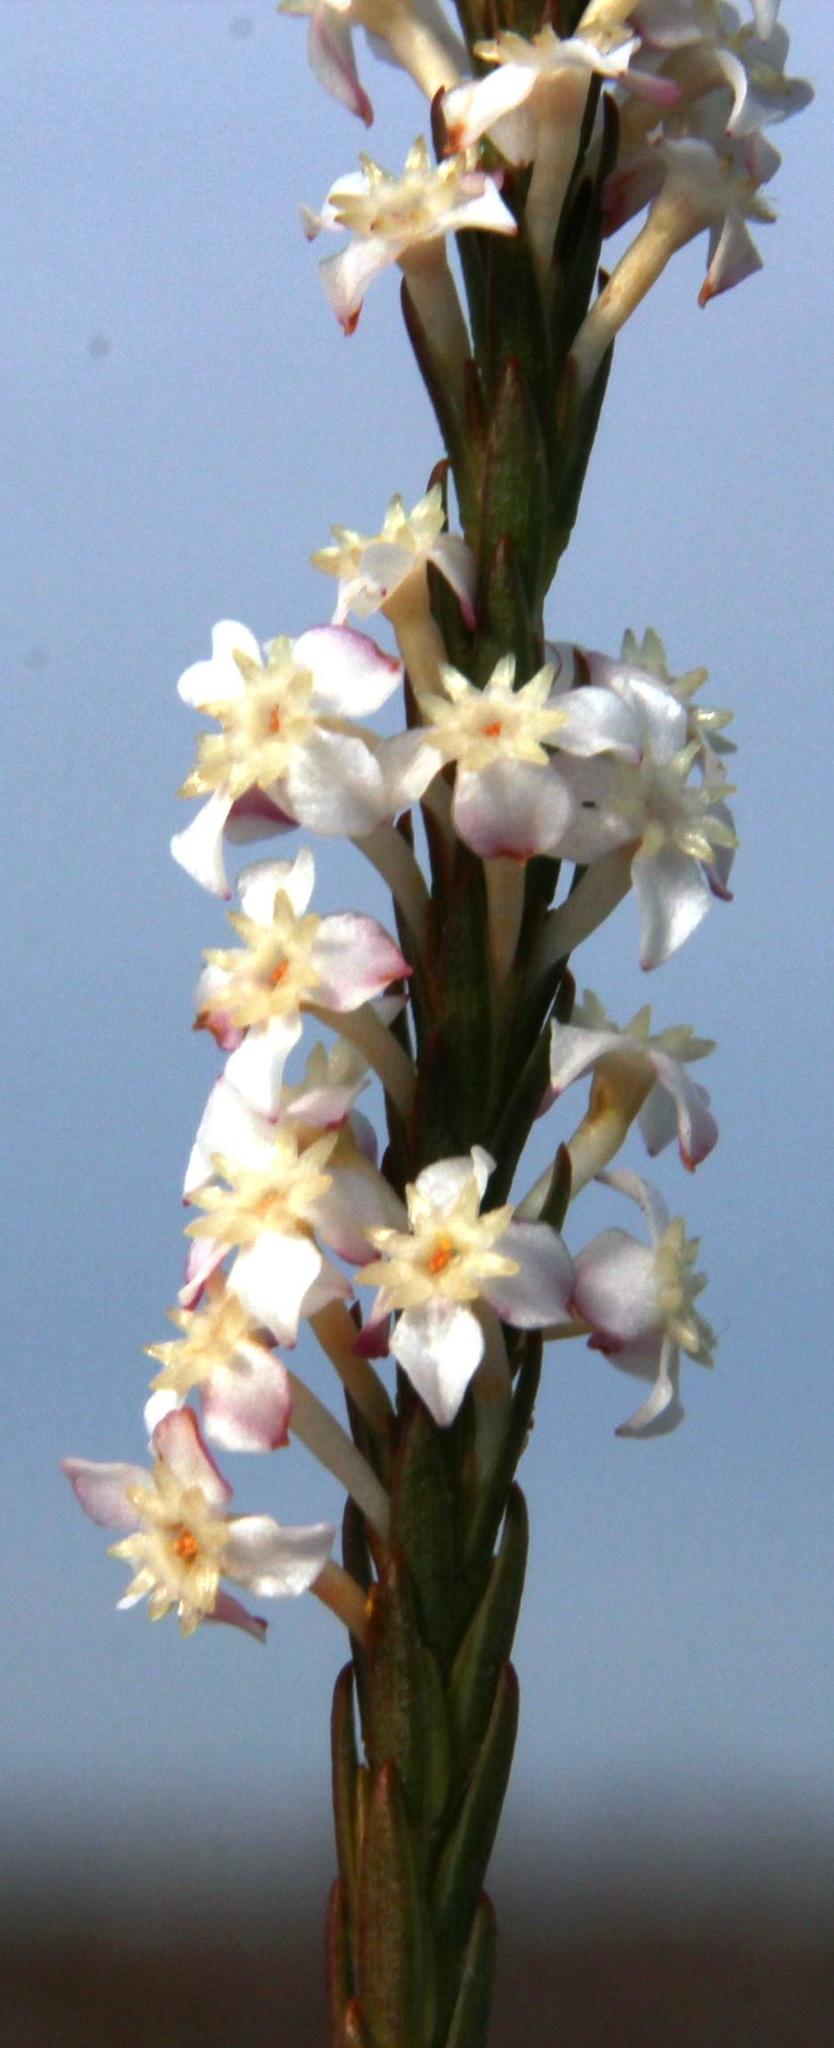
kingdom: Plantae
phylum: Tracheophyta
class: Magnoliopsida
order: Malvales
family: Thymelaeaceae
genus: Struthiola
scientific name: Struthiola dodecandra
